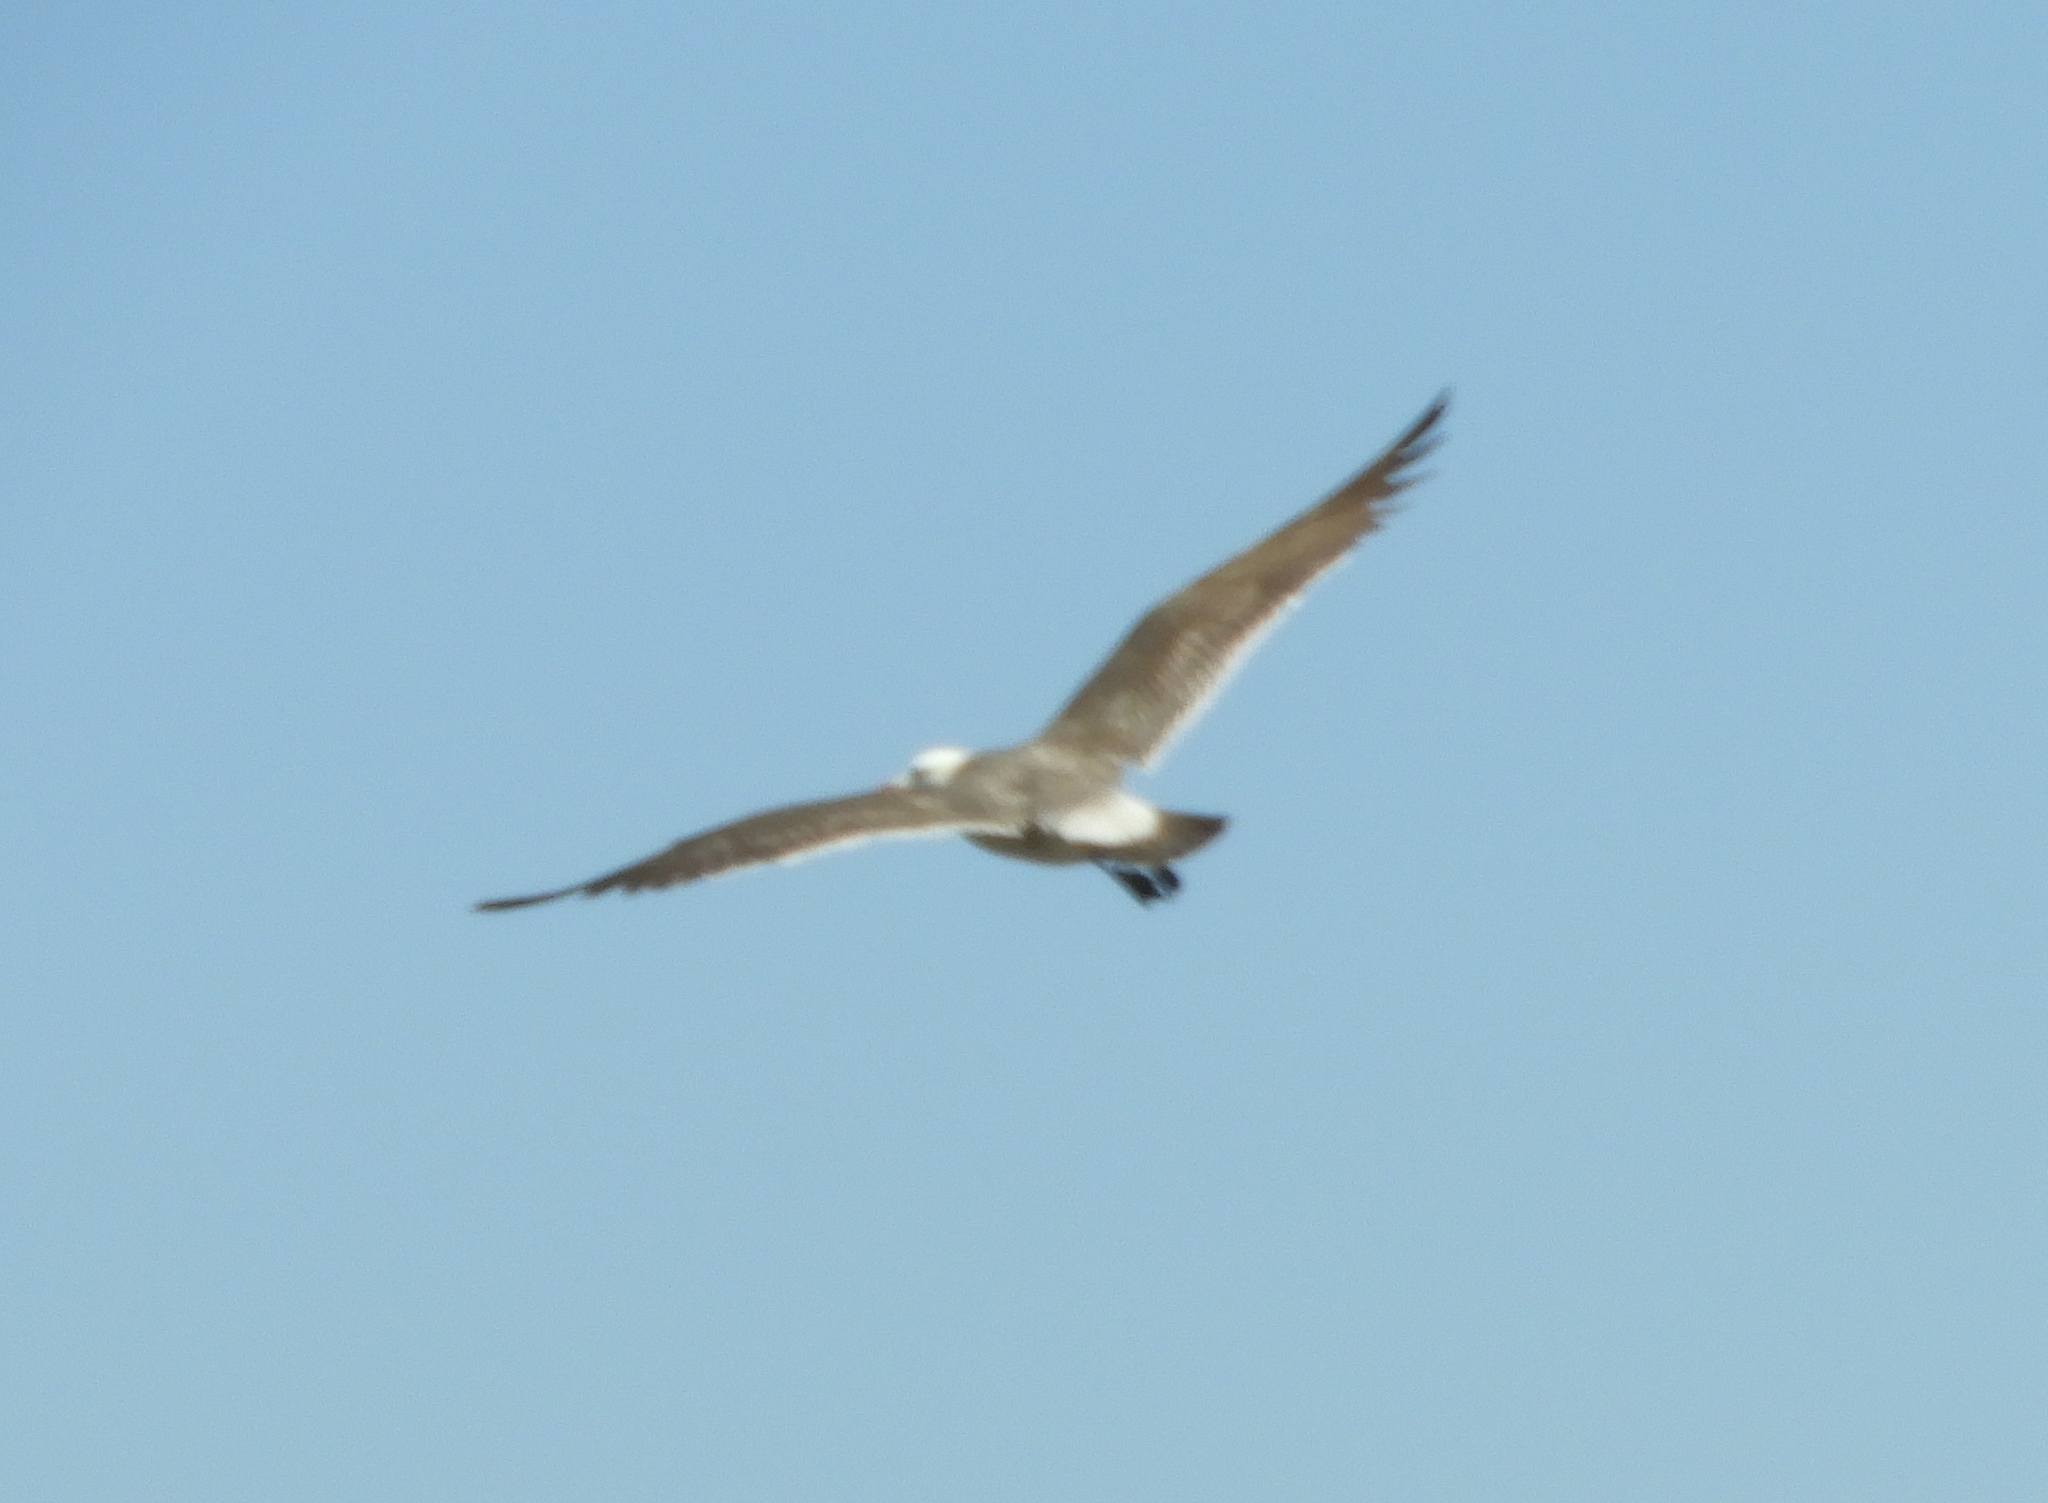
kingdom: Animalia
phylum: Chordata
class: Aves
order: Charadriiformes
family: Laridae
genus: Larus
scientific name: Larus heermanni
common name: Heermann's gull
